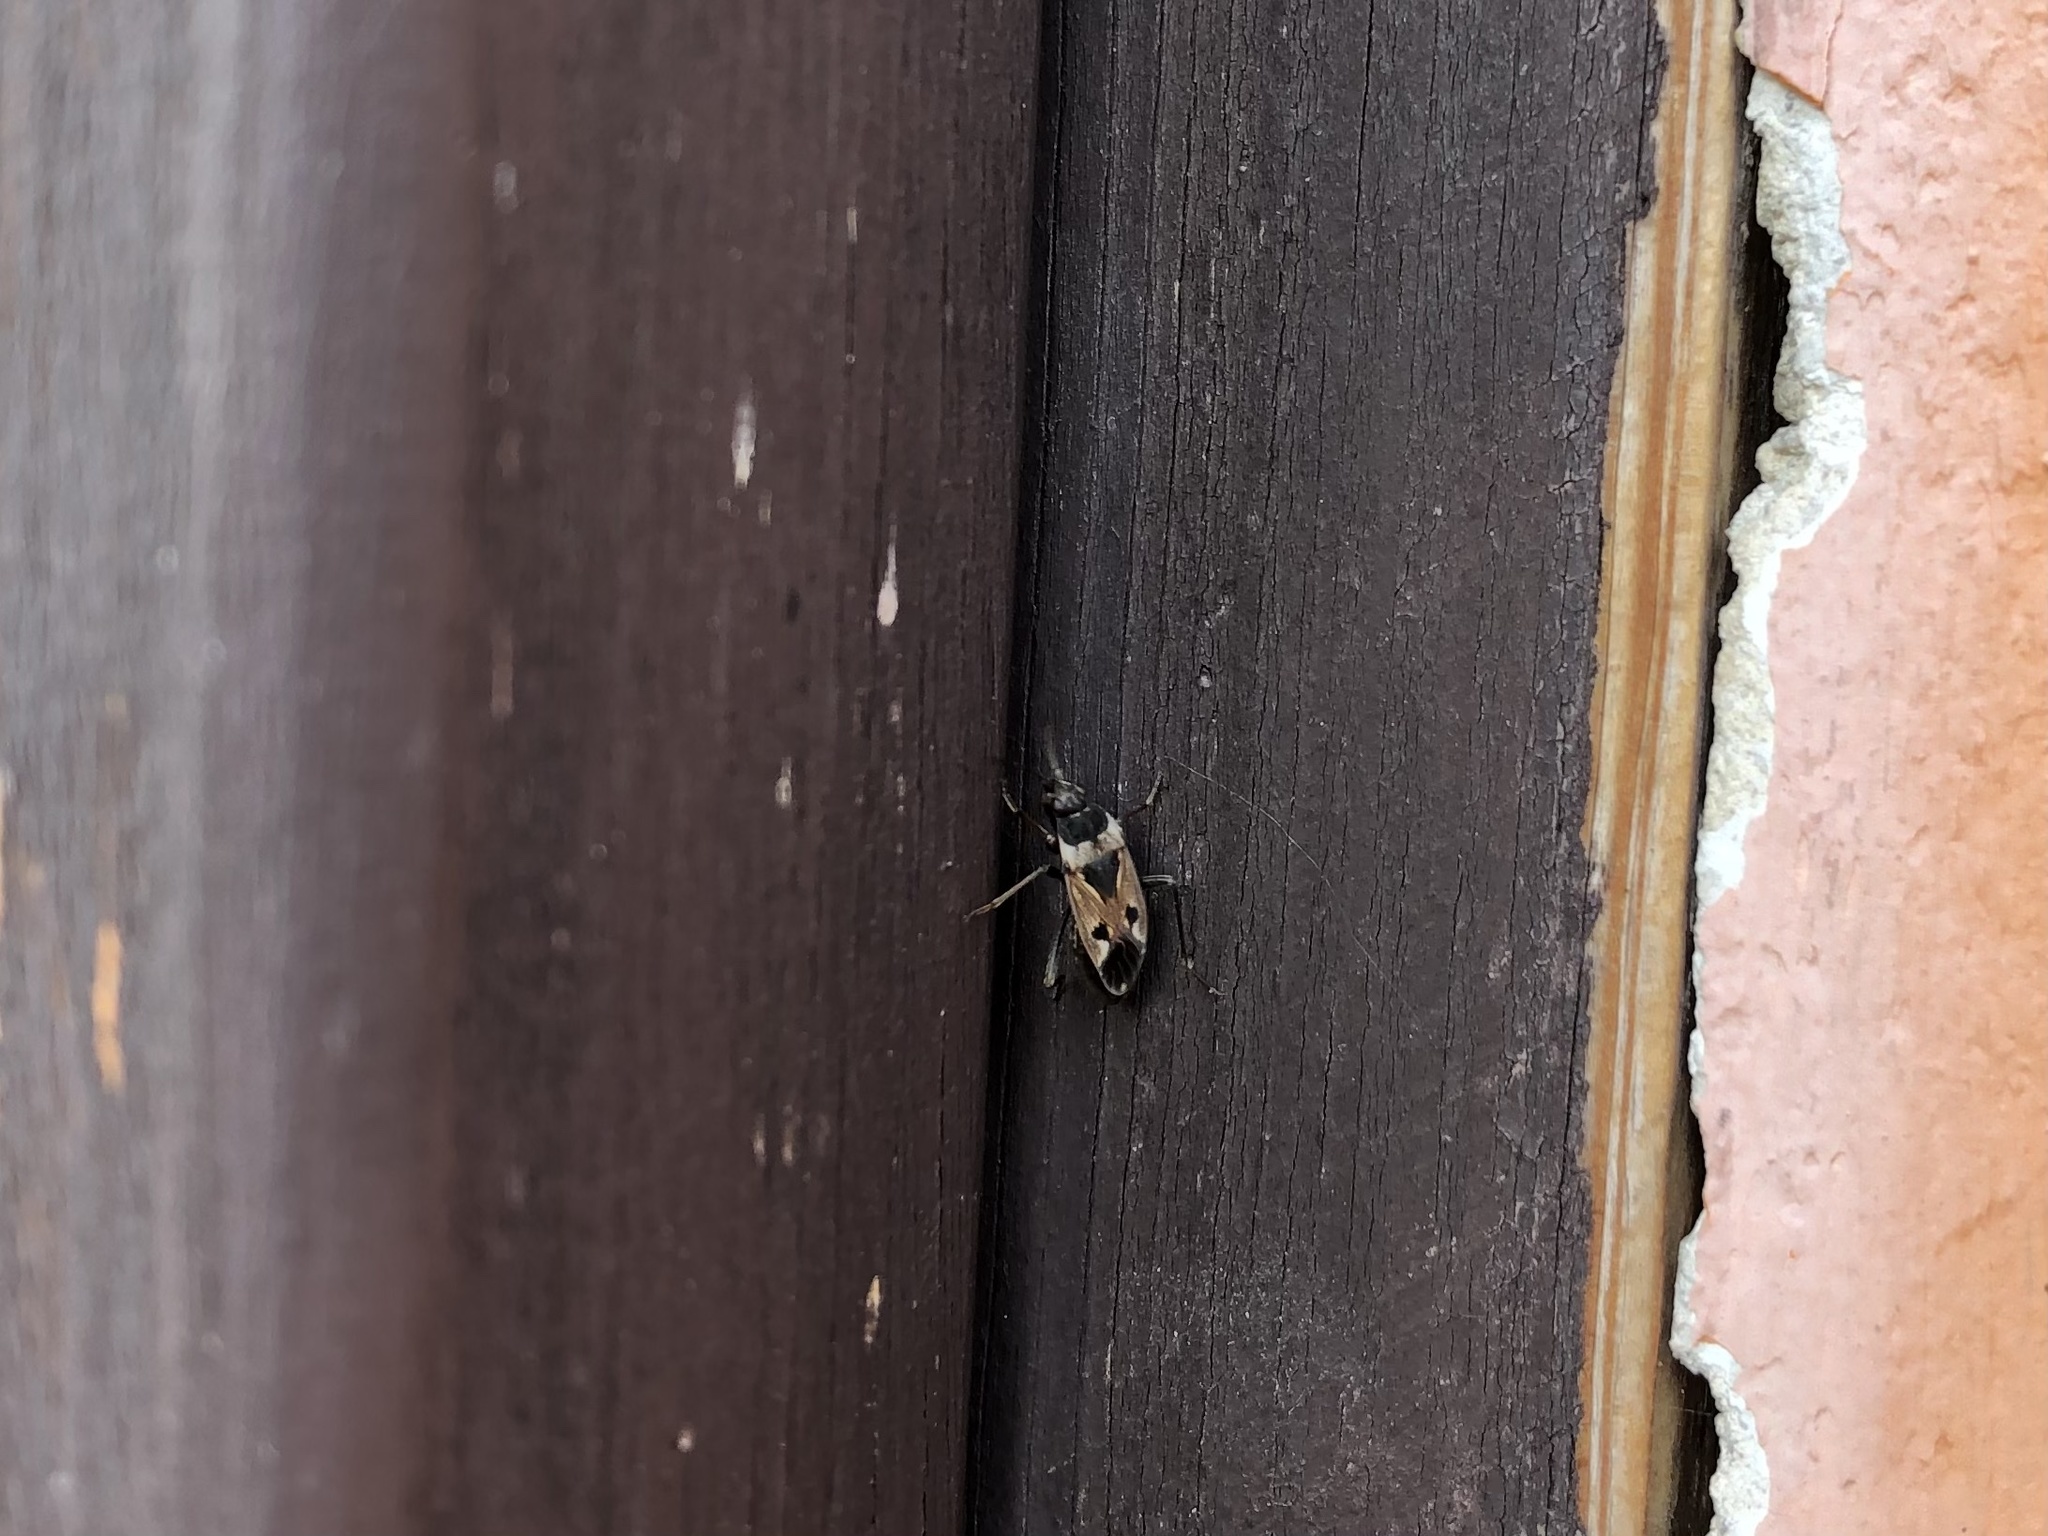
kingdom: Animalia
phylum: Arthropoda
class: Insecta
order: Hemiptera
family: Rhyparochromidae
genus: Raglius
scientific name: Raglius confusus
